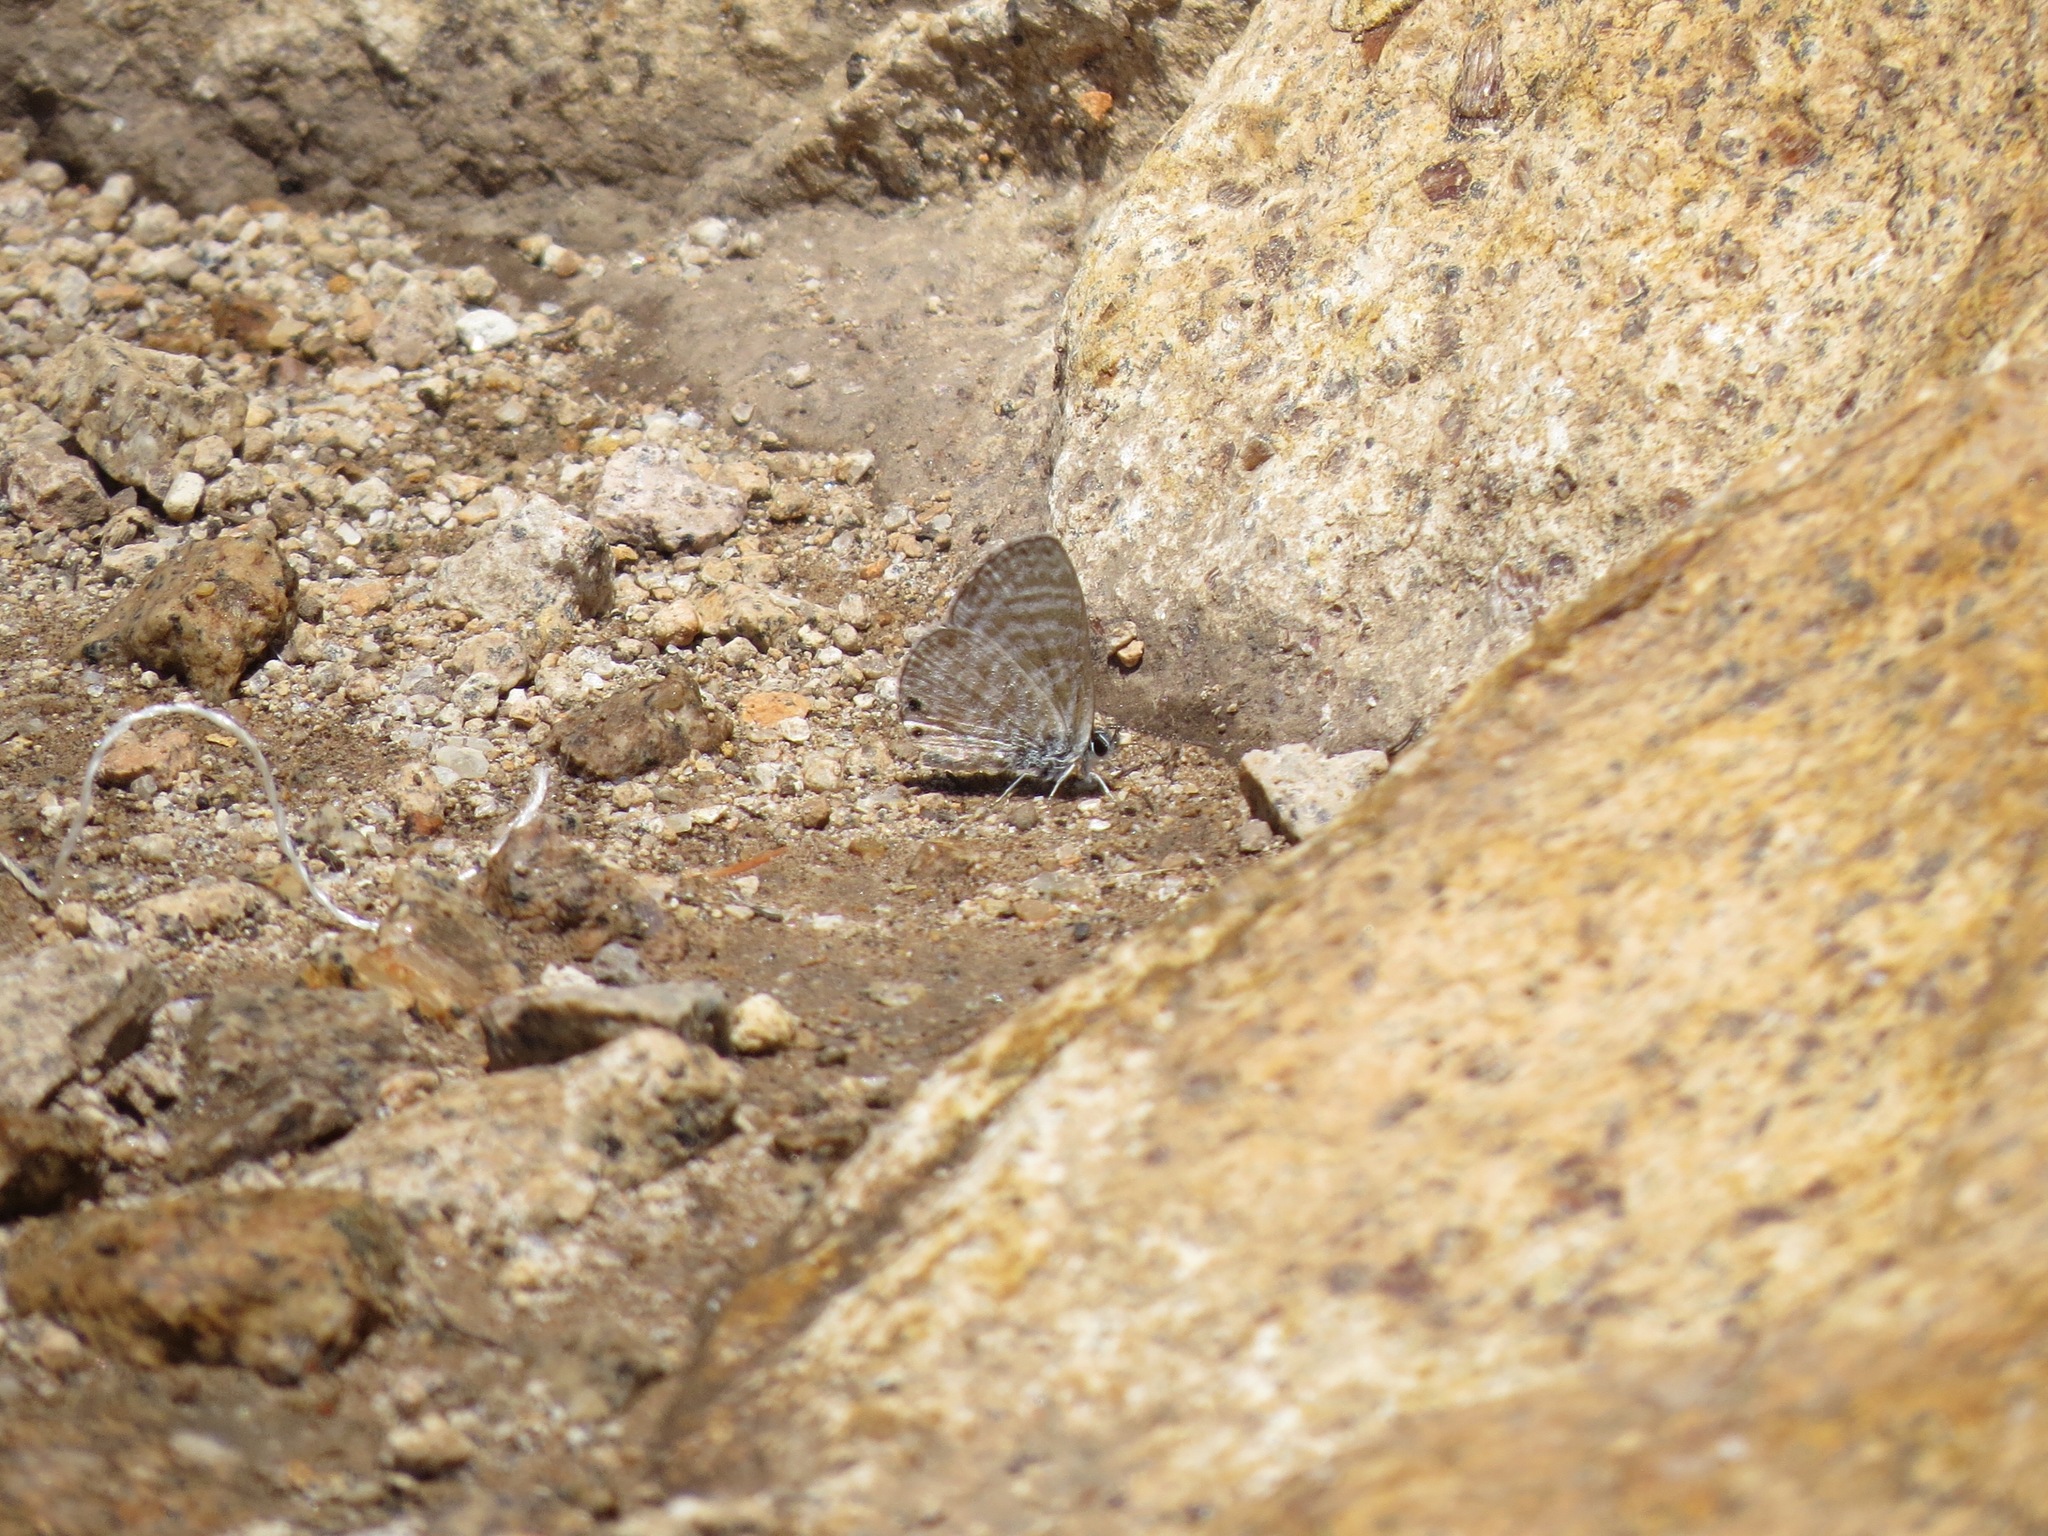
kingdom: Animalia
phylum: Arthropoda
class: Insecta
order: Lepidoptera
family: Lycaenidae
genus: Leptotes
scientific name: Leptotes marina
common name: Marine blue
